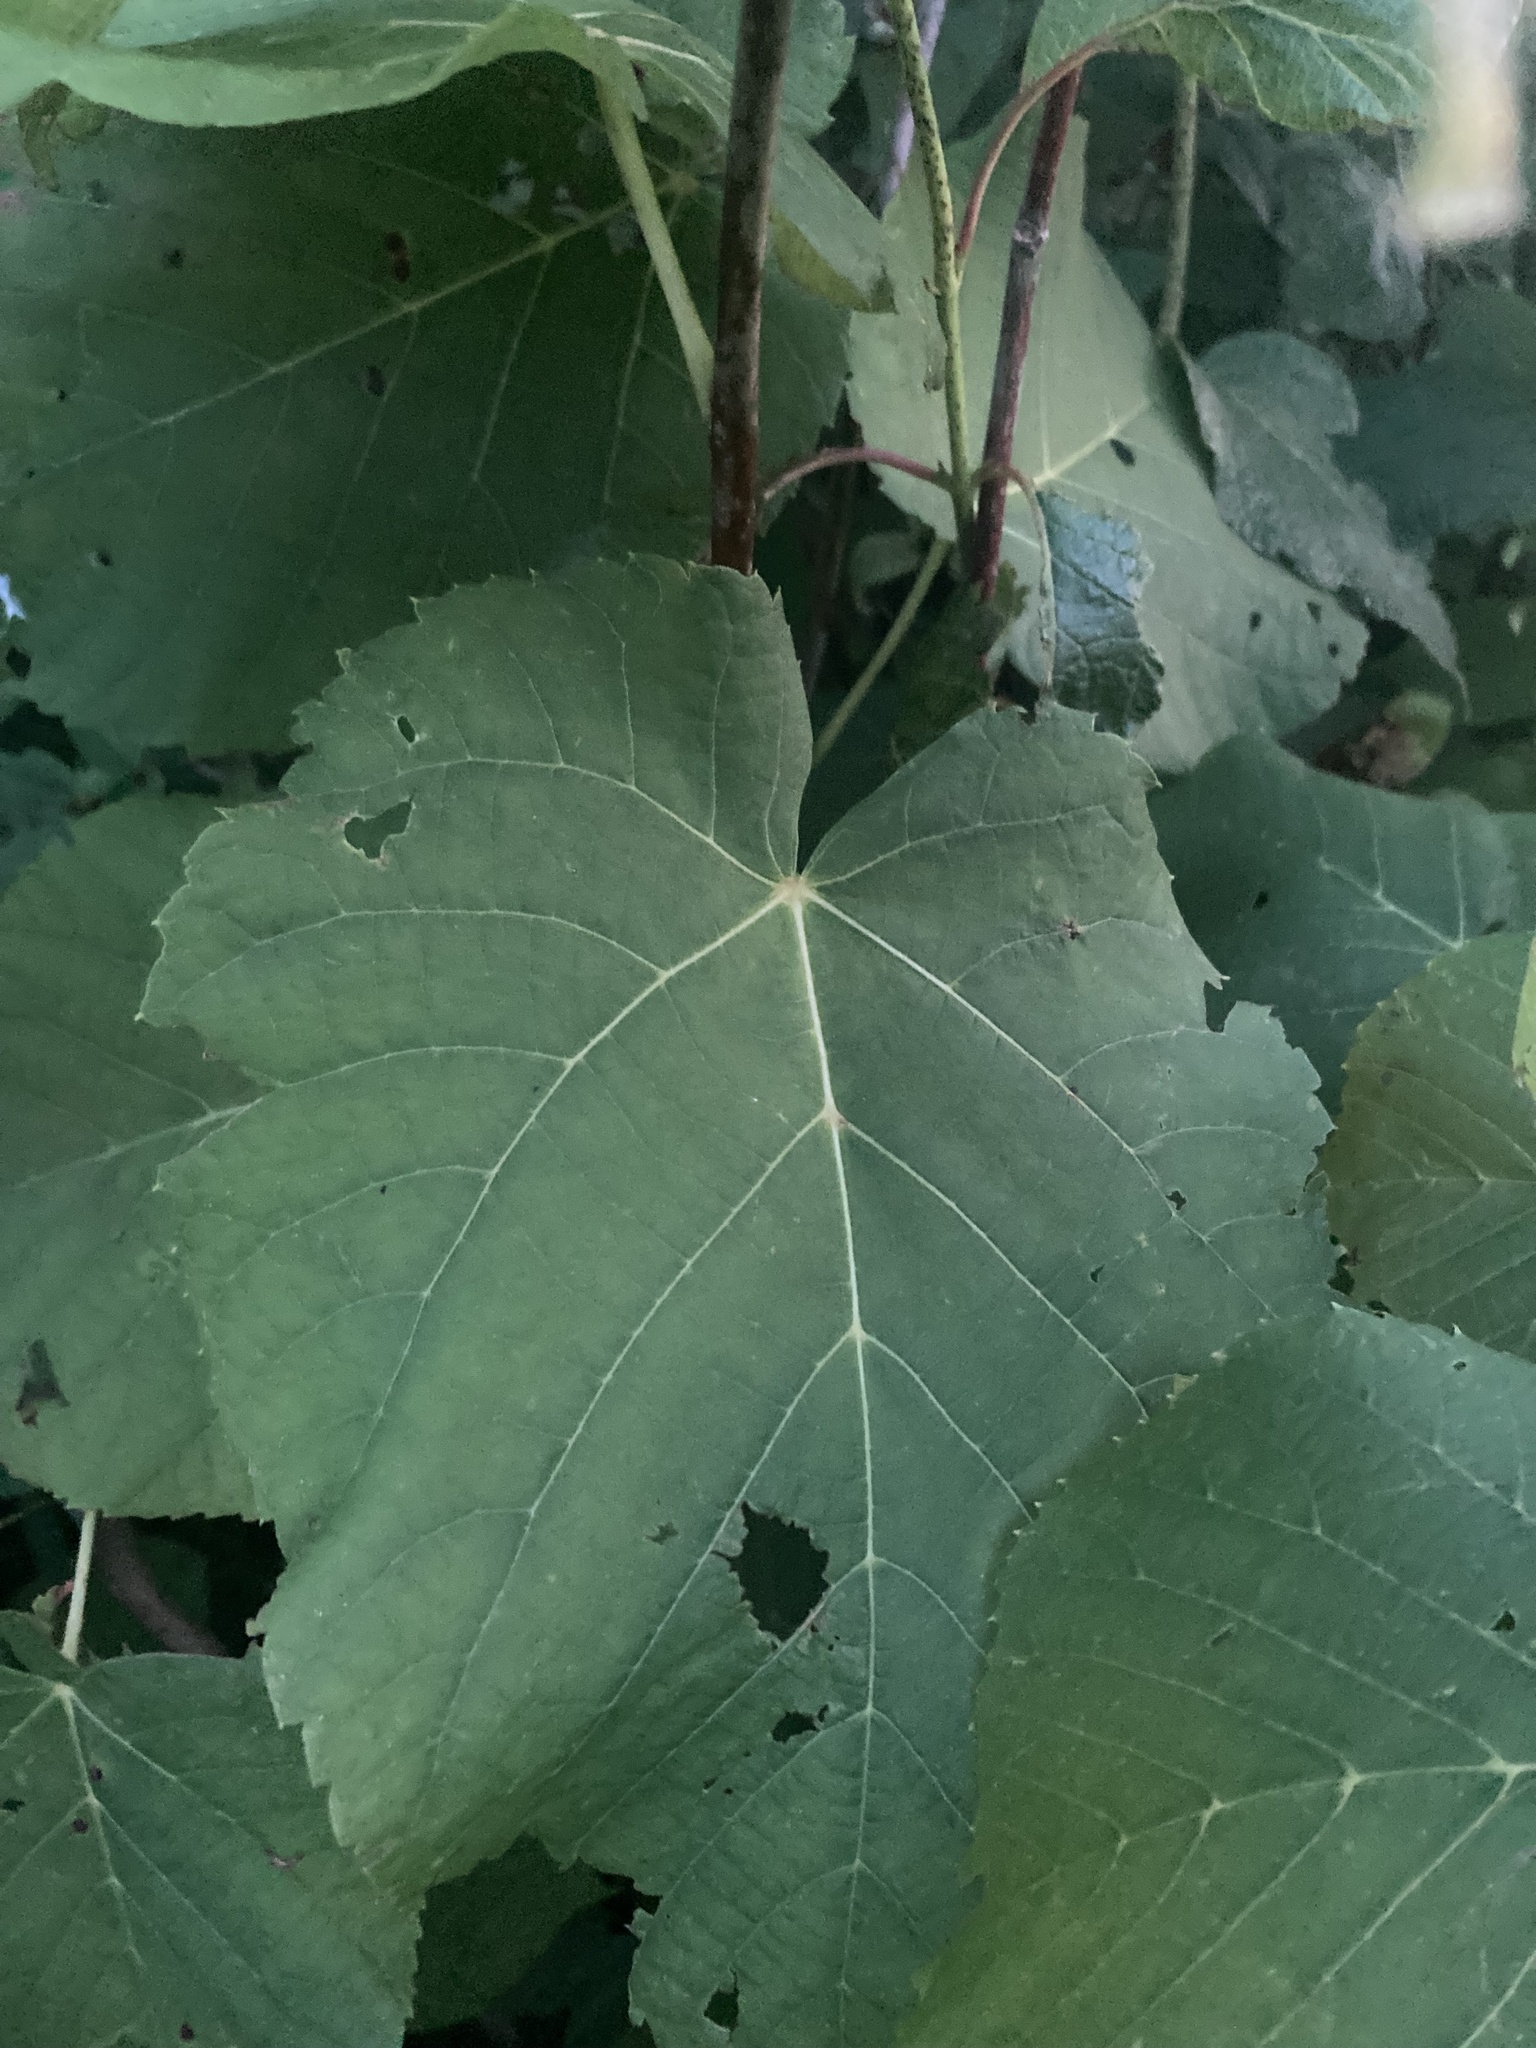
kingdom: Plantae
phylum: Tracheophyta
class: Magnoliopsida
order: Malvales
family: Malvaceae
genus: Tilia
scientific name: Tilia americana
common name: Basswood
